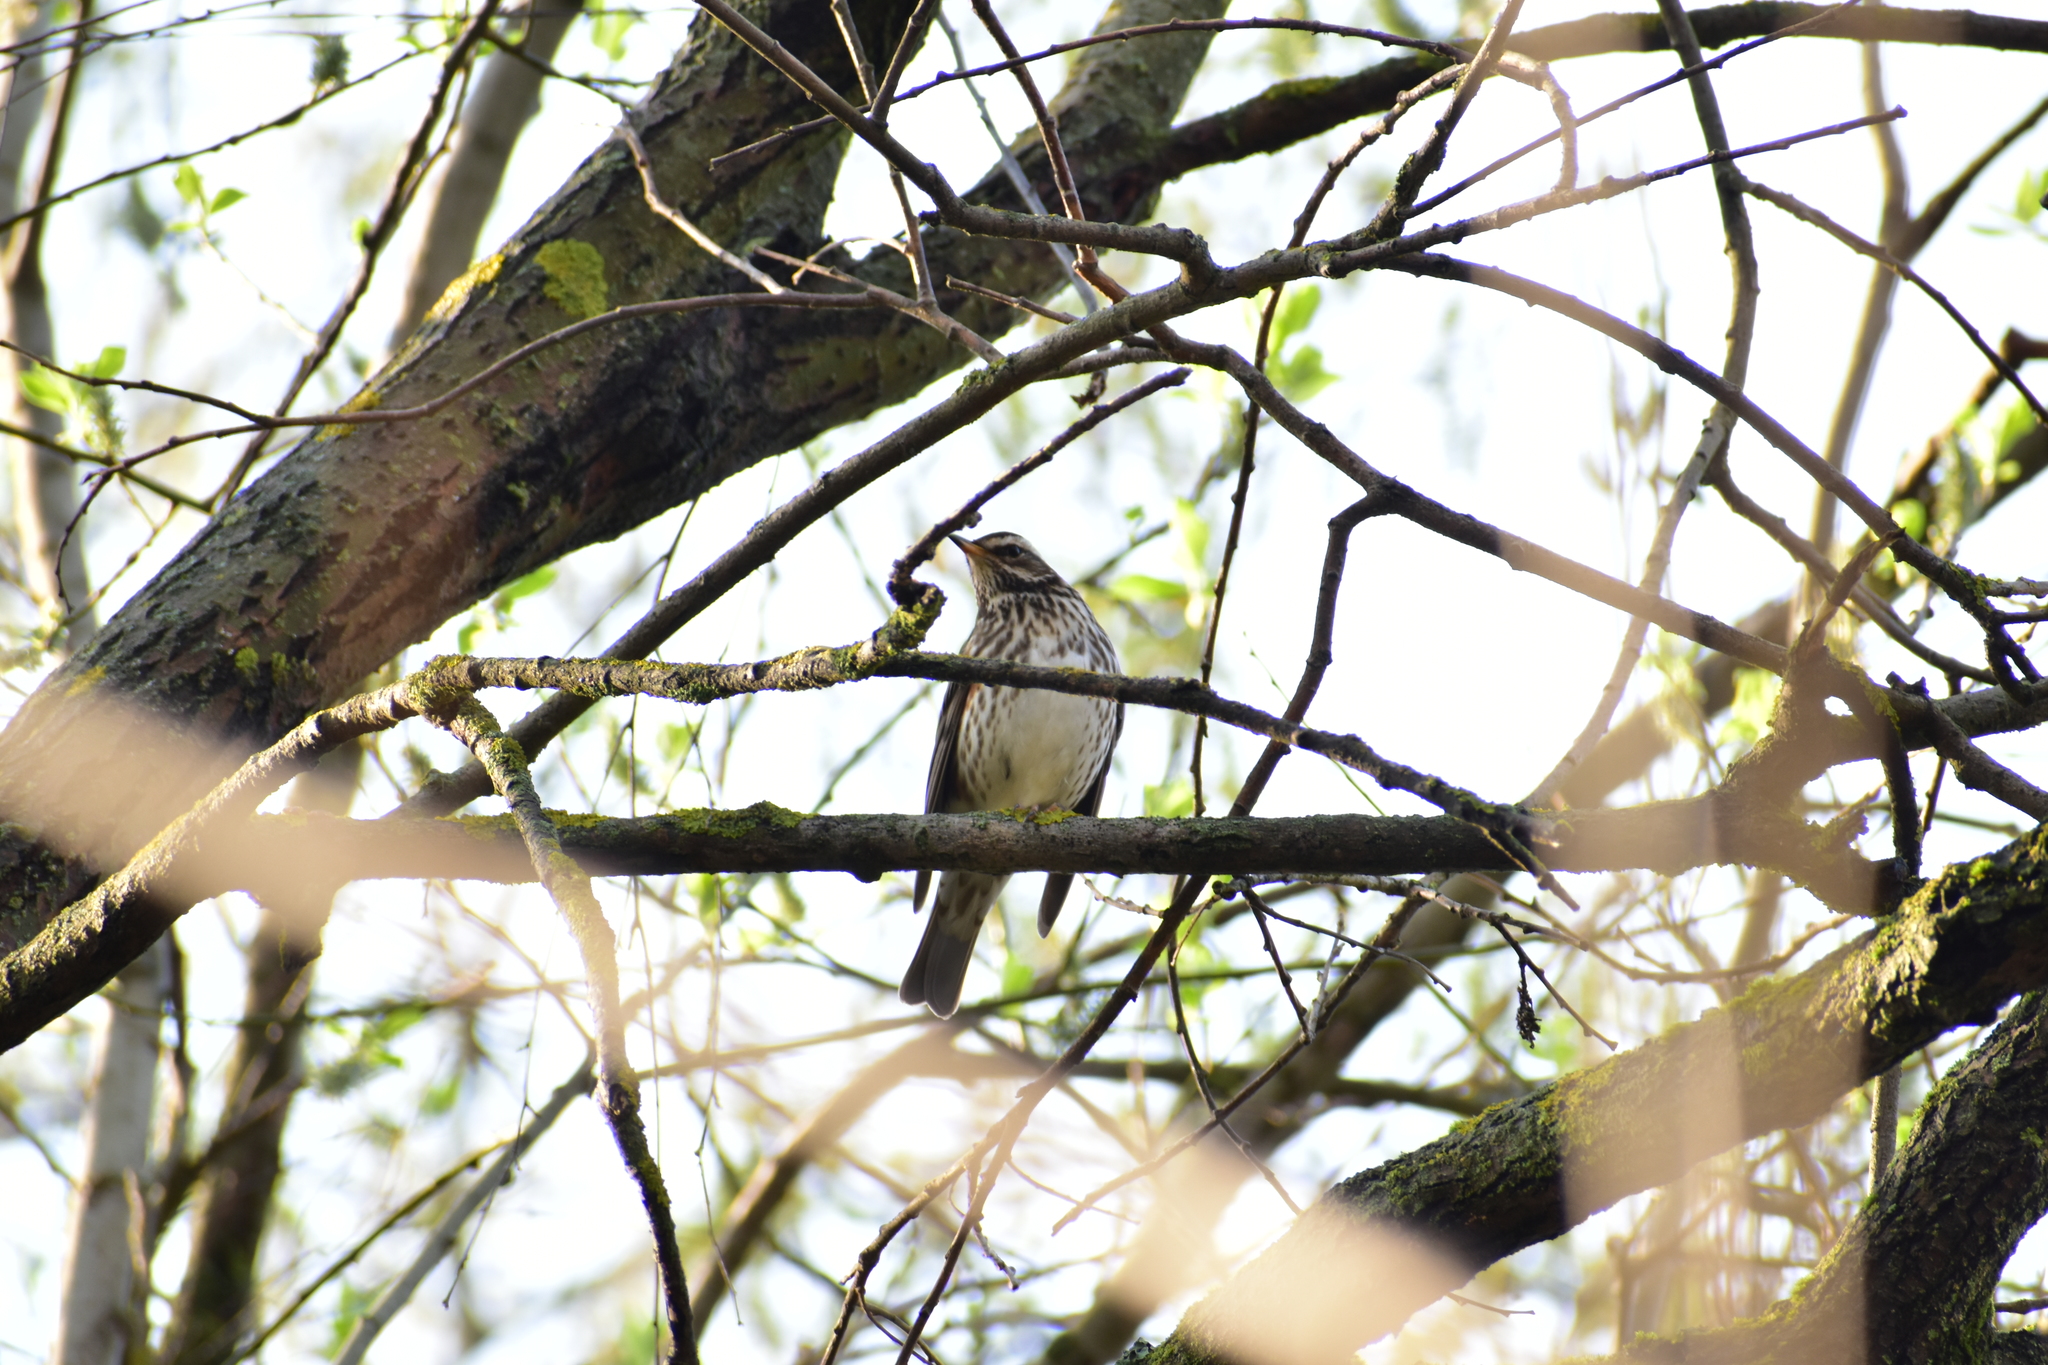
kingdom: Animalia
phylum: Chordata
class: Aves
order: Passeriformes
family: Turdidae
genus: Turdus
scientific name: Turdus iliacus
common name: Redwing
